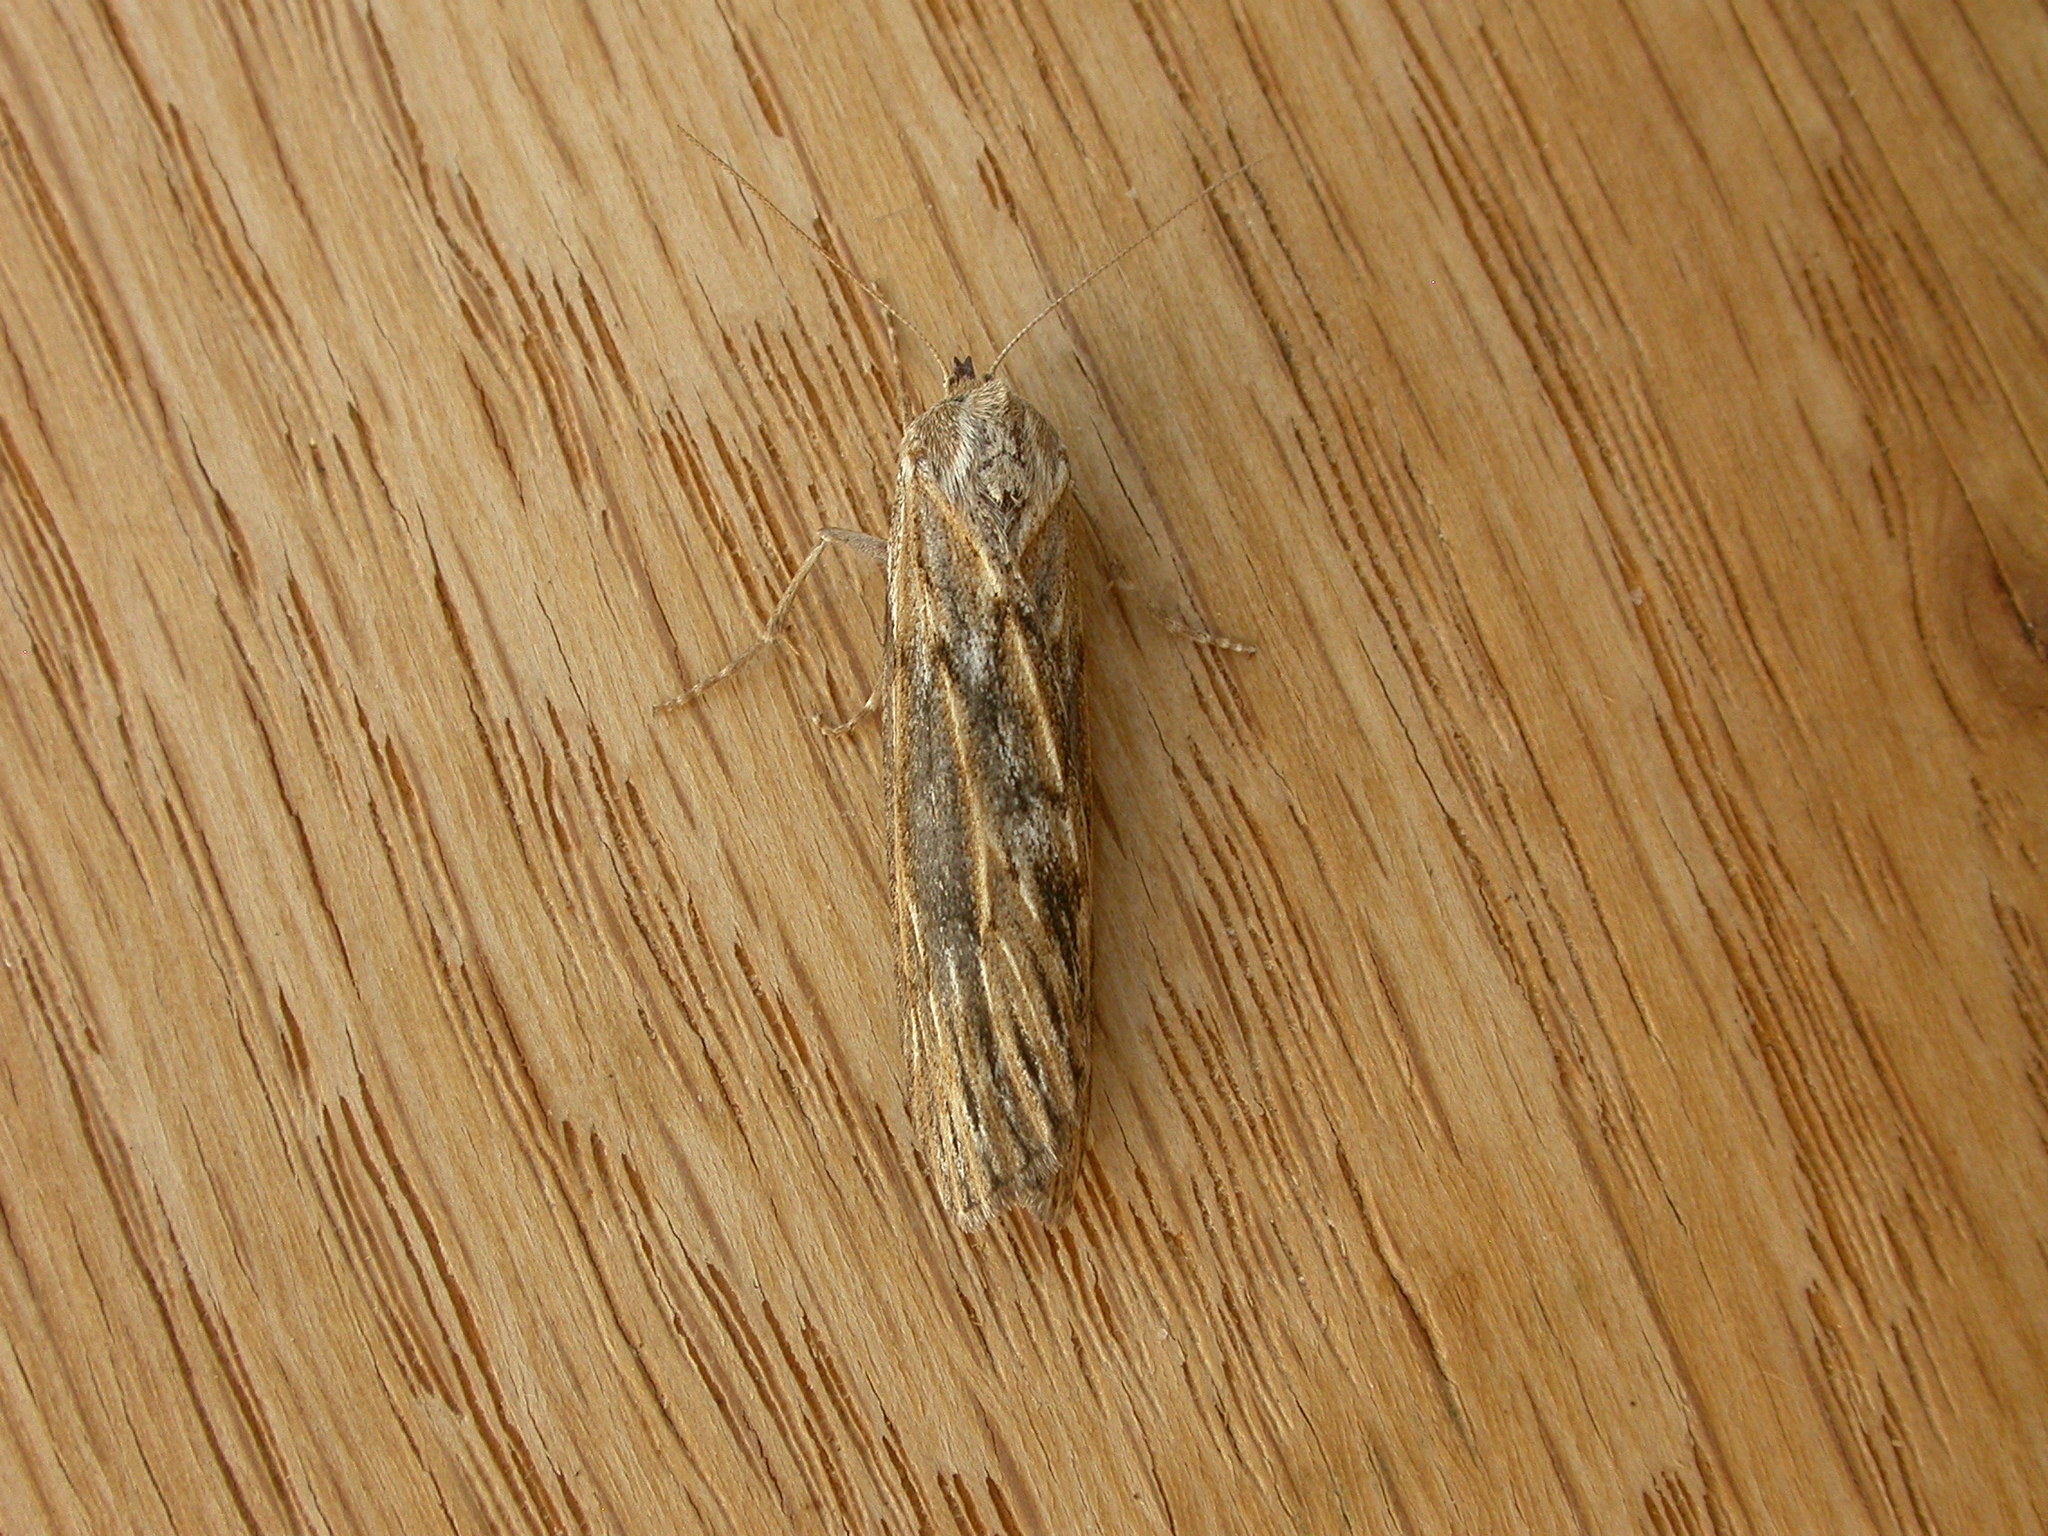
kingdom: Animalia
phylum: Arthropoda
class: Insecta
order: Lepidoptera
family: Geometridae
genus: Ciampa
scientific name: Ciampa arietaria
